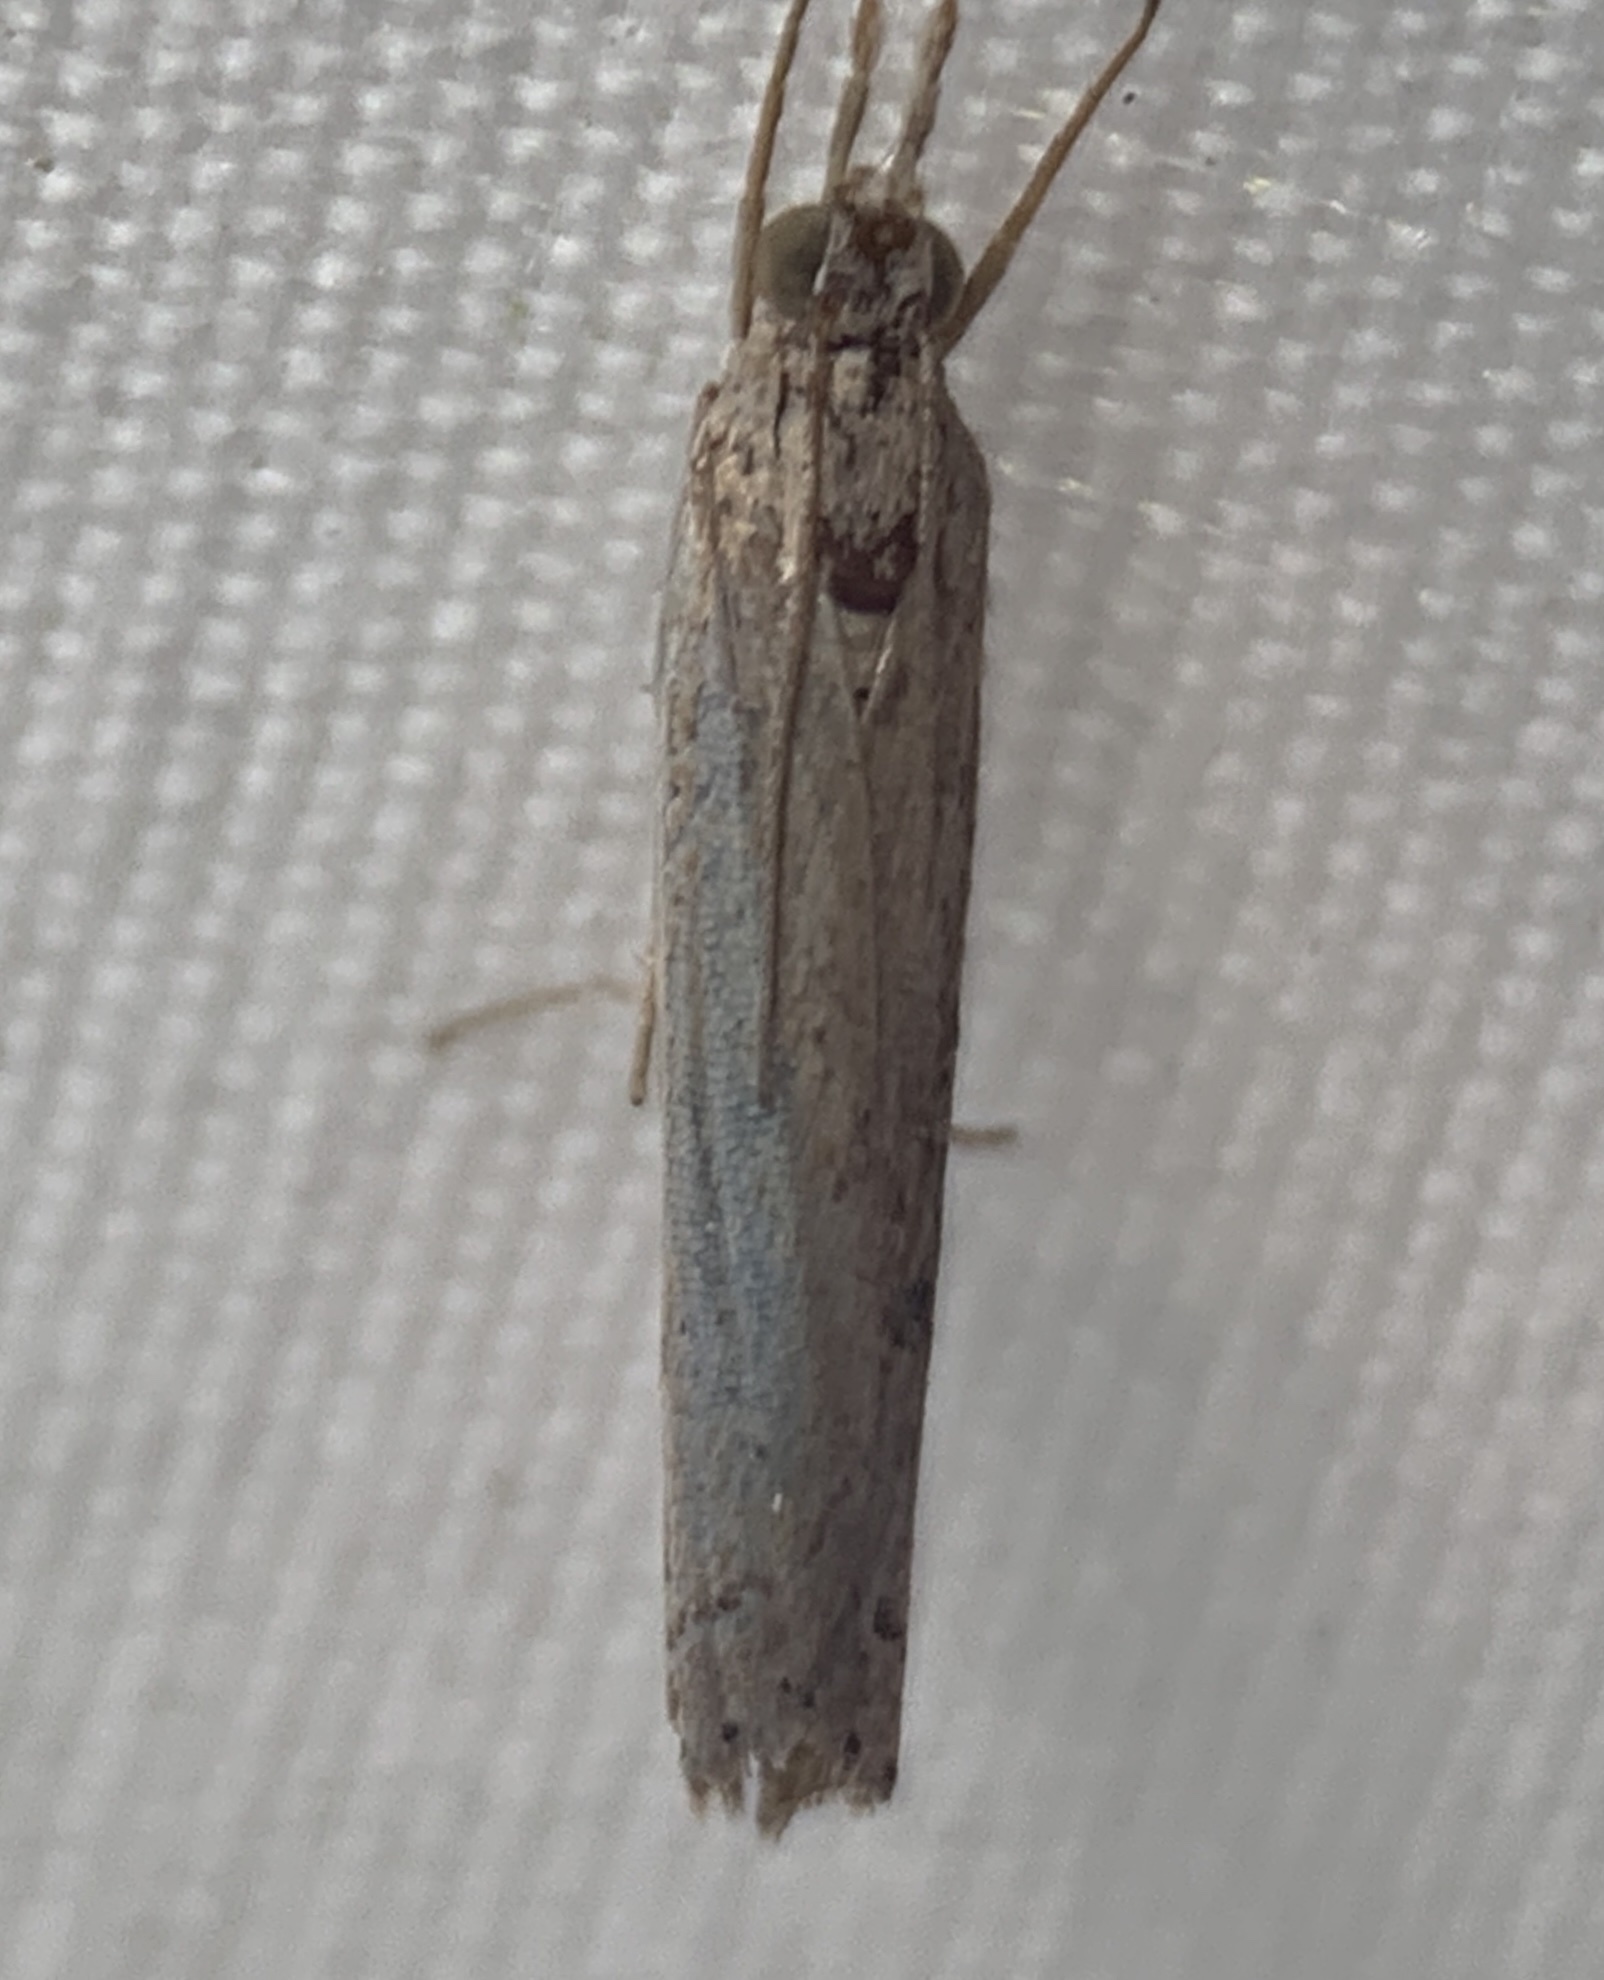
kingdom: Animalia
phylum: Arthropoda
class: Insecta
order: Lepidoptera
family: Crambidae
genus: Fissicrambus
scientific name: Fissicrambus quadrinotellus
